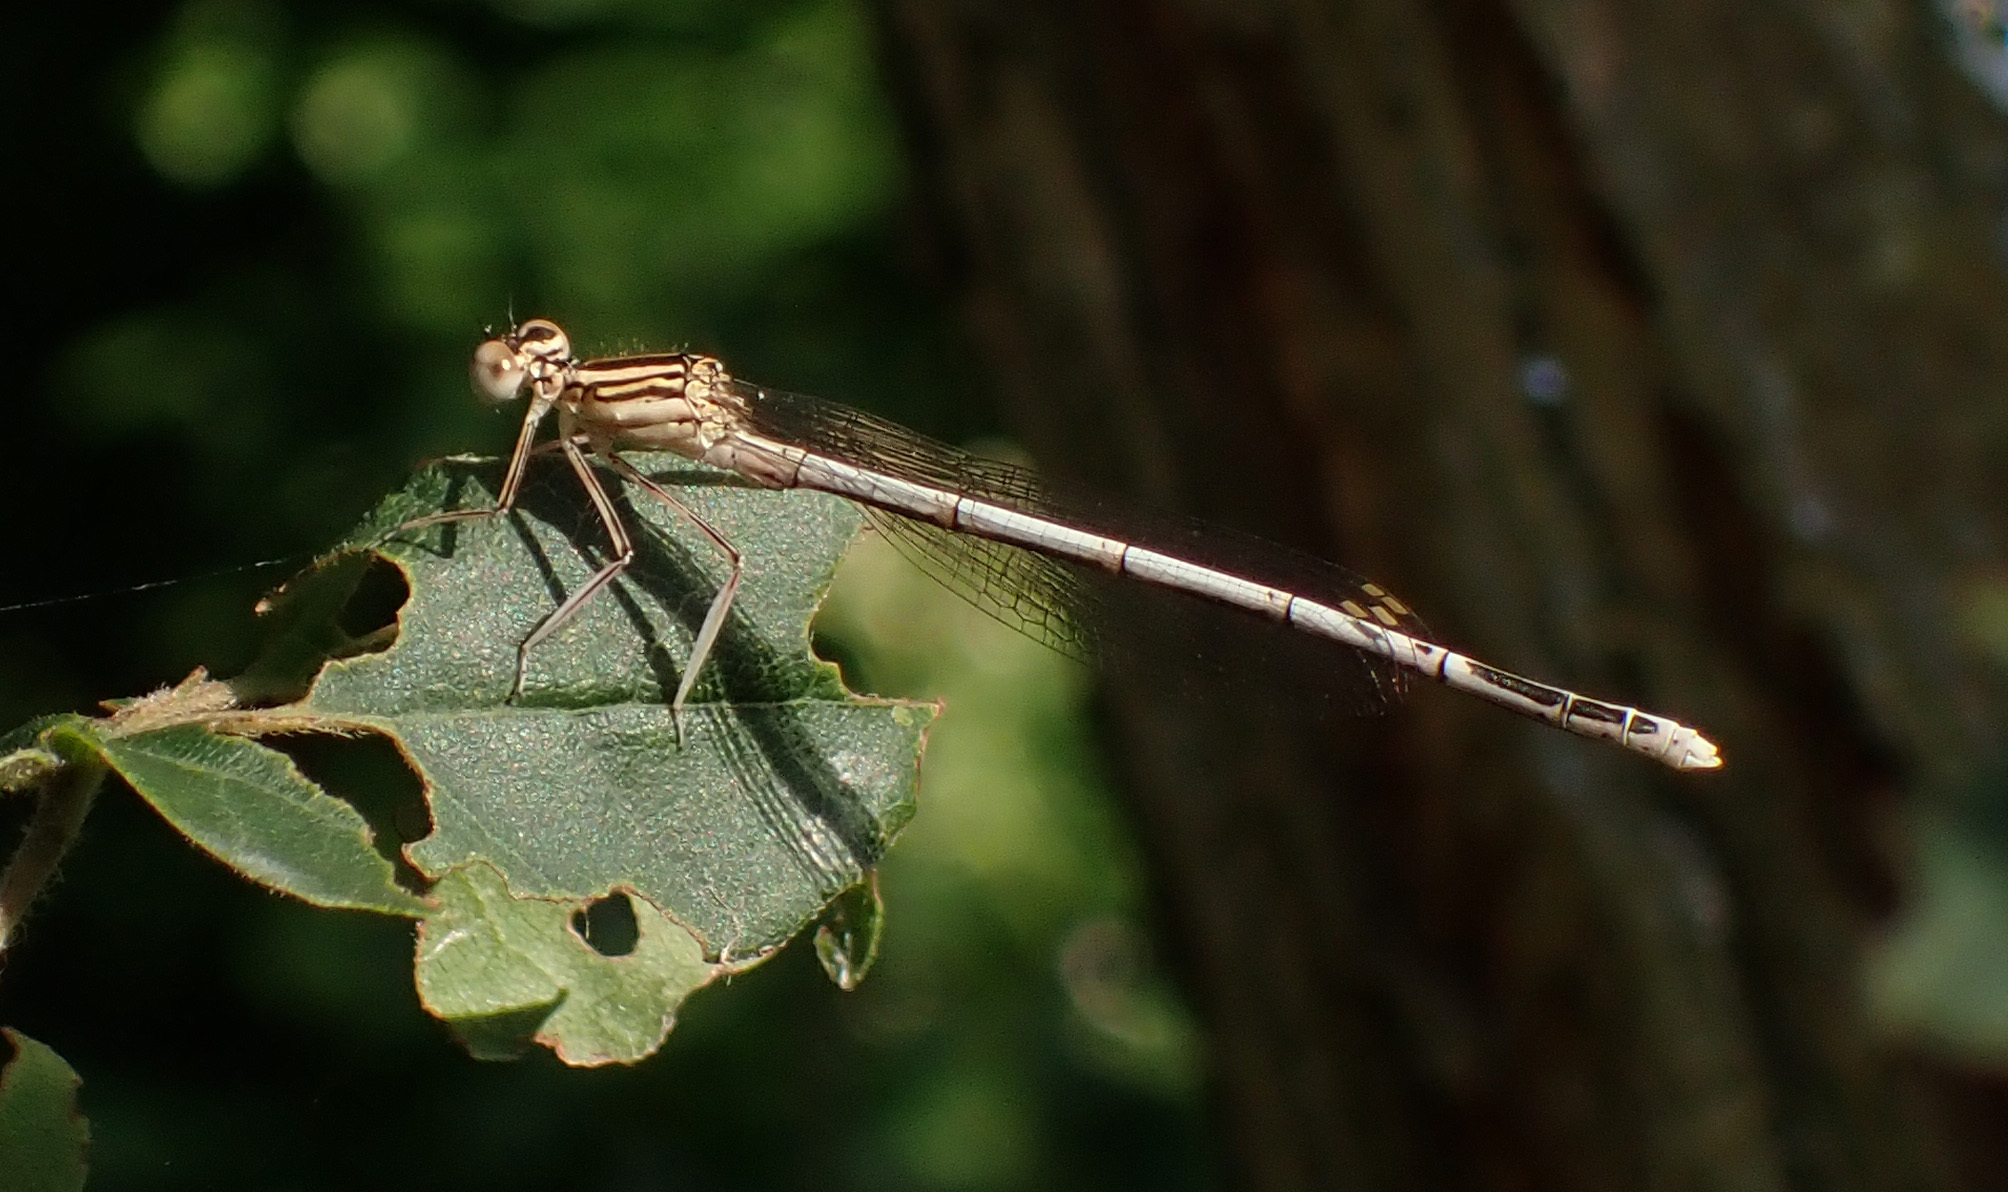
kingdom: Animalia
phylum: Arthropoda
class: Insecta
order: Odonata
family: Platycnemididae
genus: Platycnemis
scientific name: Platycnemis pennipes
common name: White-legged damselfly
